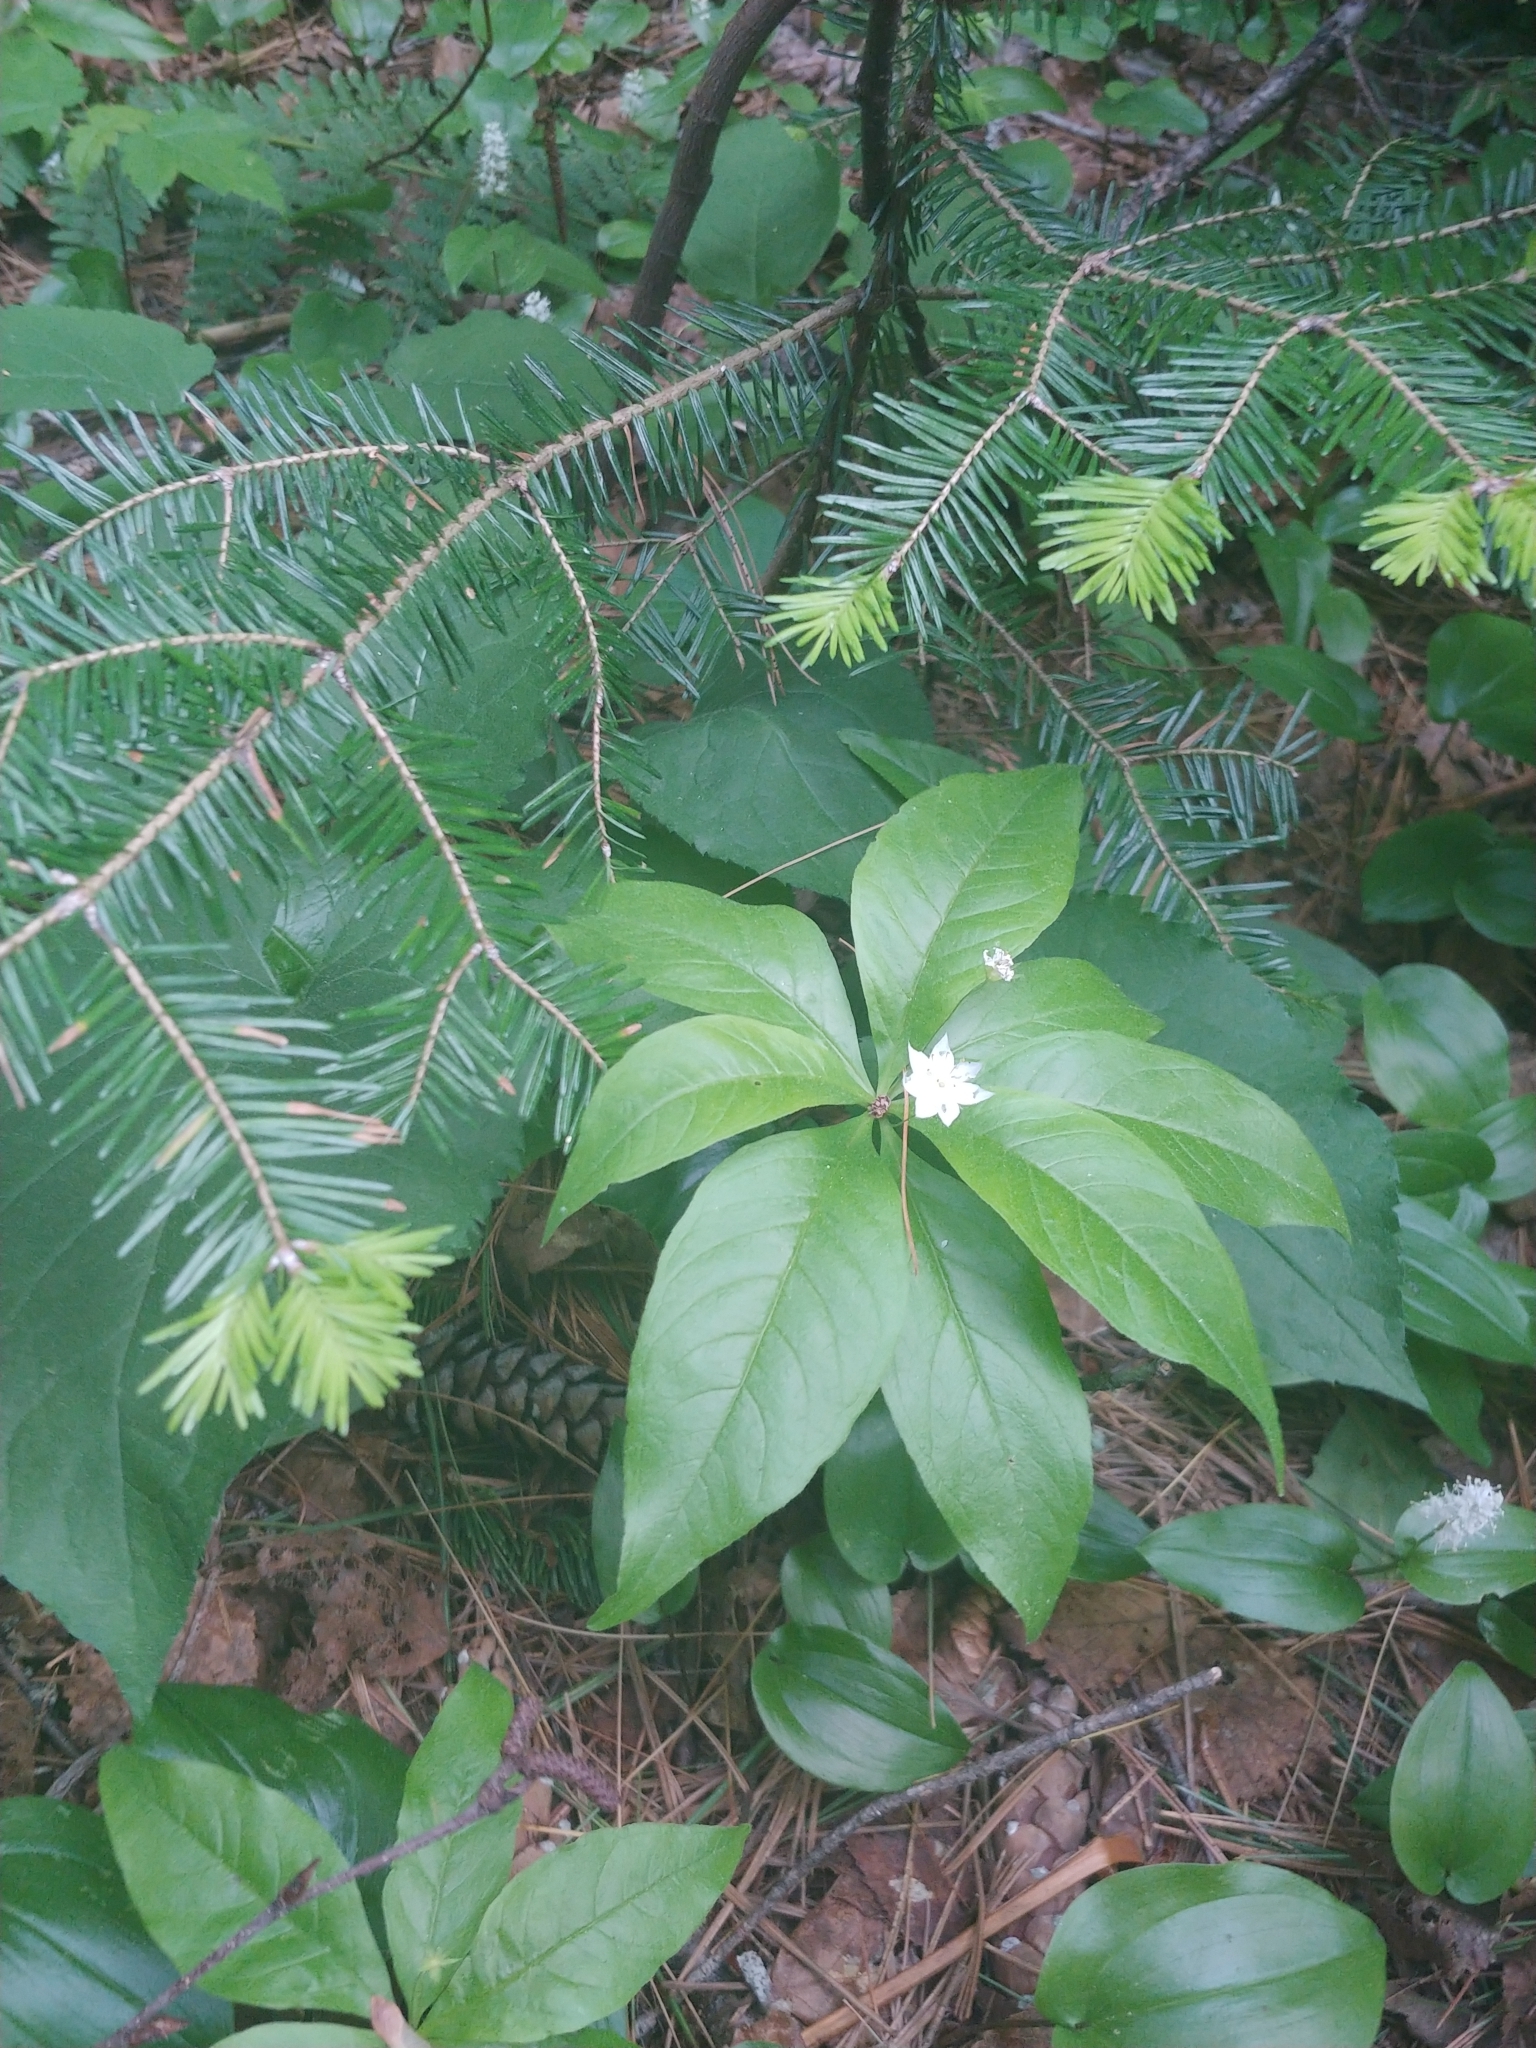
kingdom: Plantae
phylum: Tracheophyta
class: Magnoliopsida
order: Ericales
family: Primulaceae
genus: Lysimachia
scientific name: Lysimachia borealis
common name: American starflower
